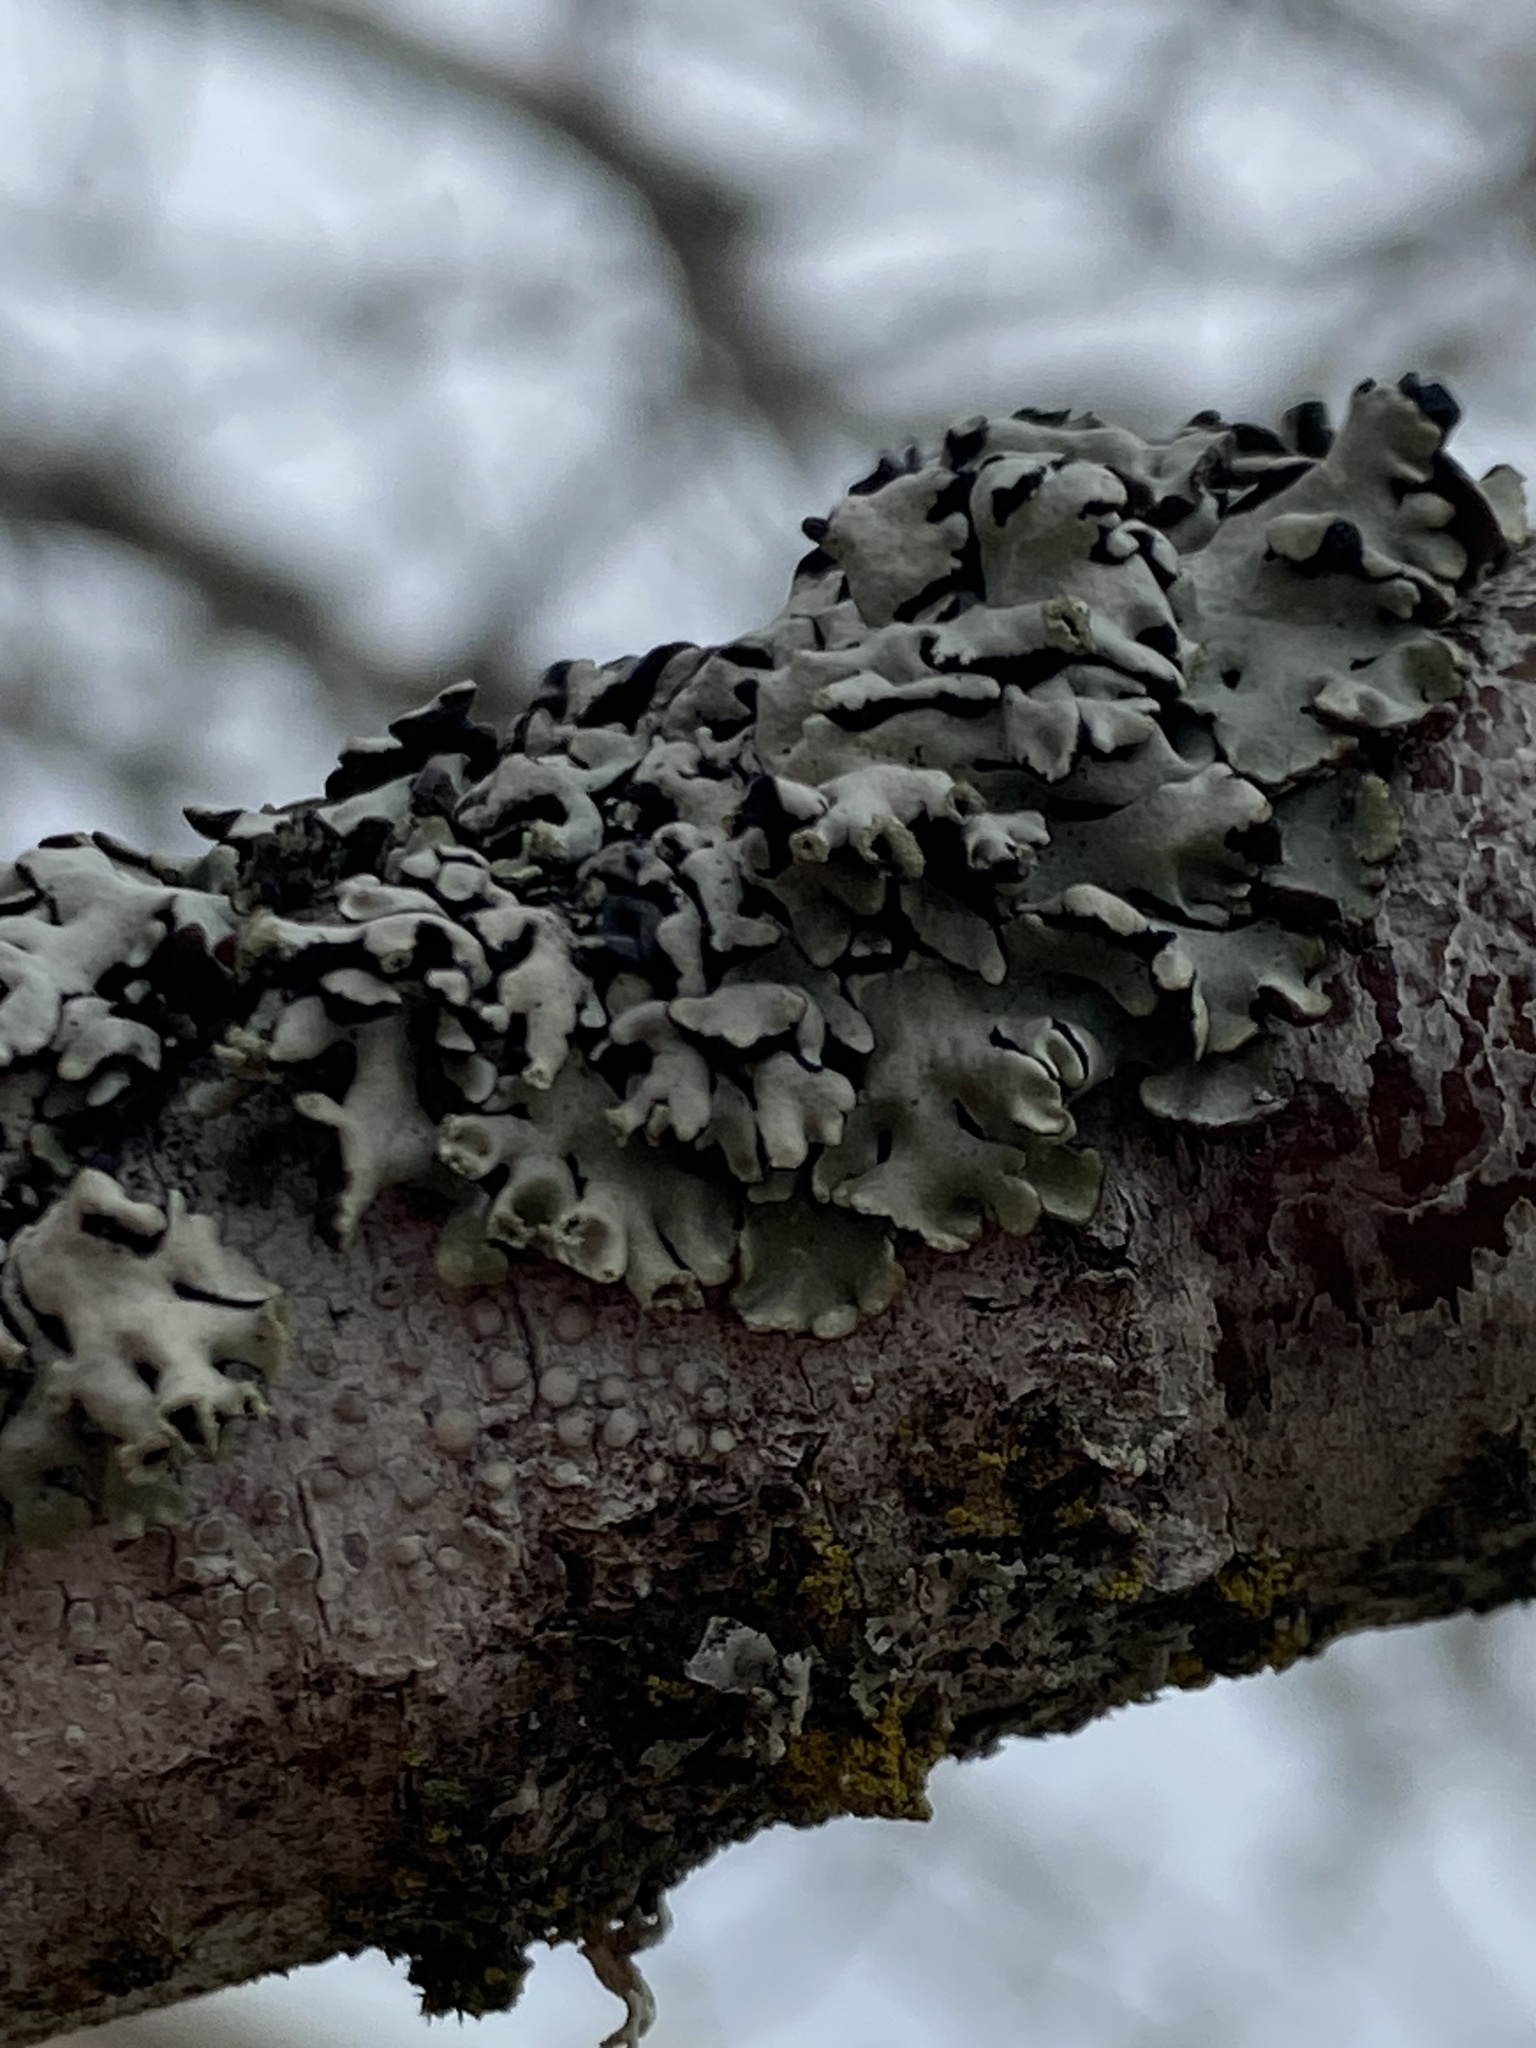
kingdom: Fungi
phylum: Ascomycota
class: Lecanoromycetes
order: Lecanorales
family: Parmeliaceae
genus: Hypogymnia
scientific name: Hypogymnia physodes
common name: Dark crottle
